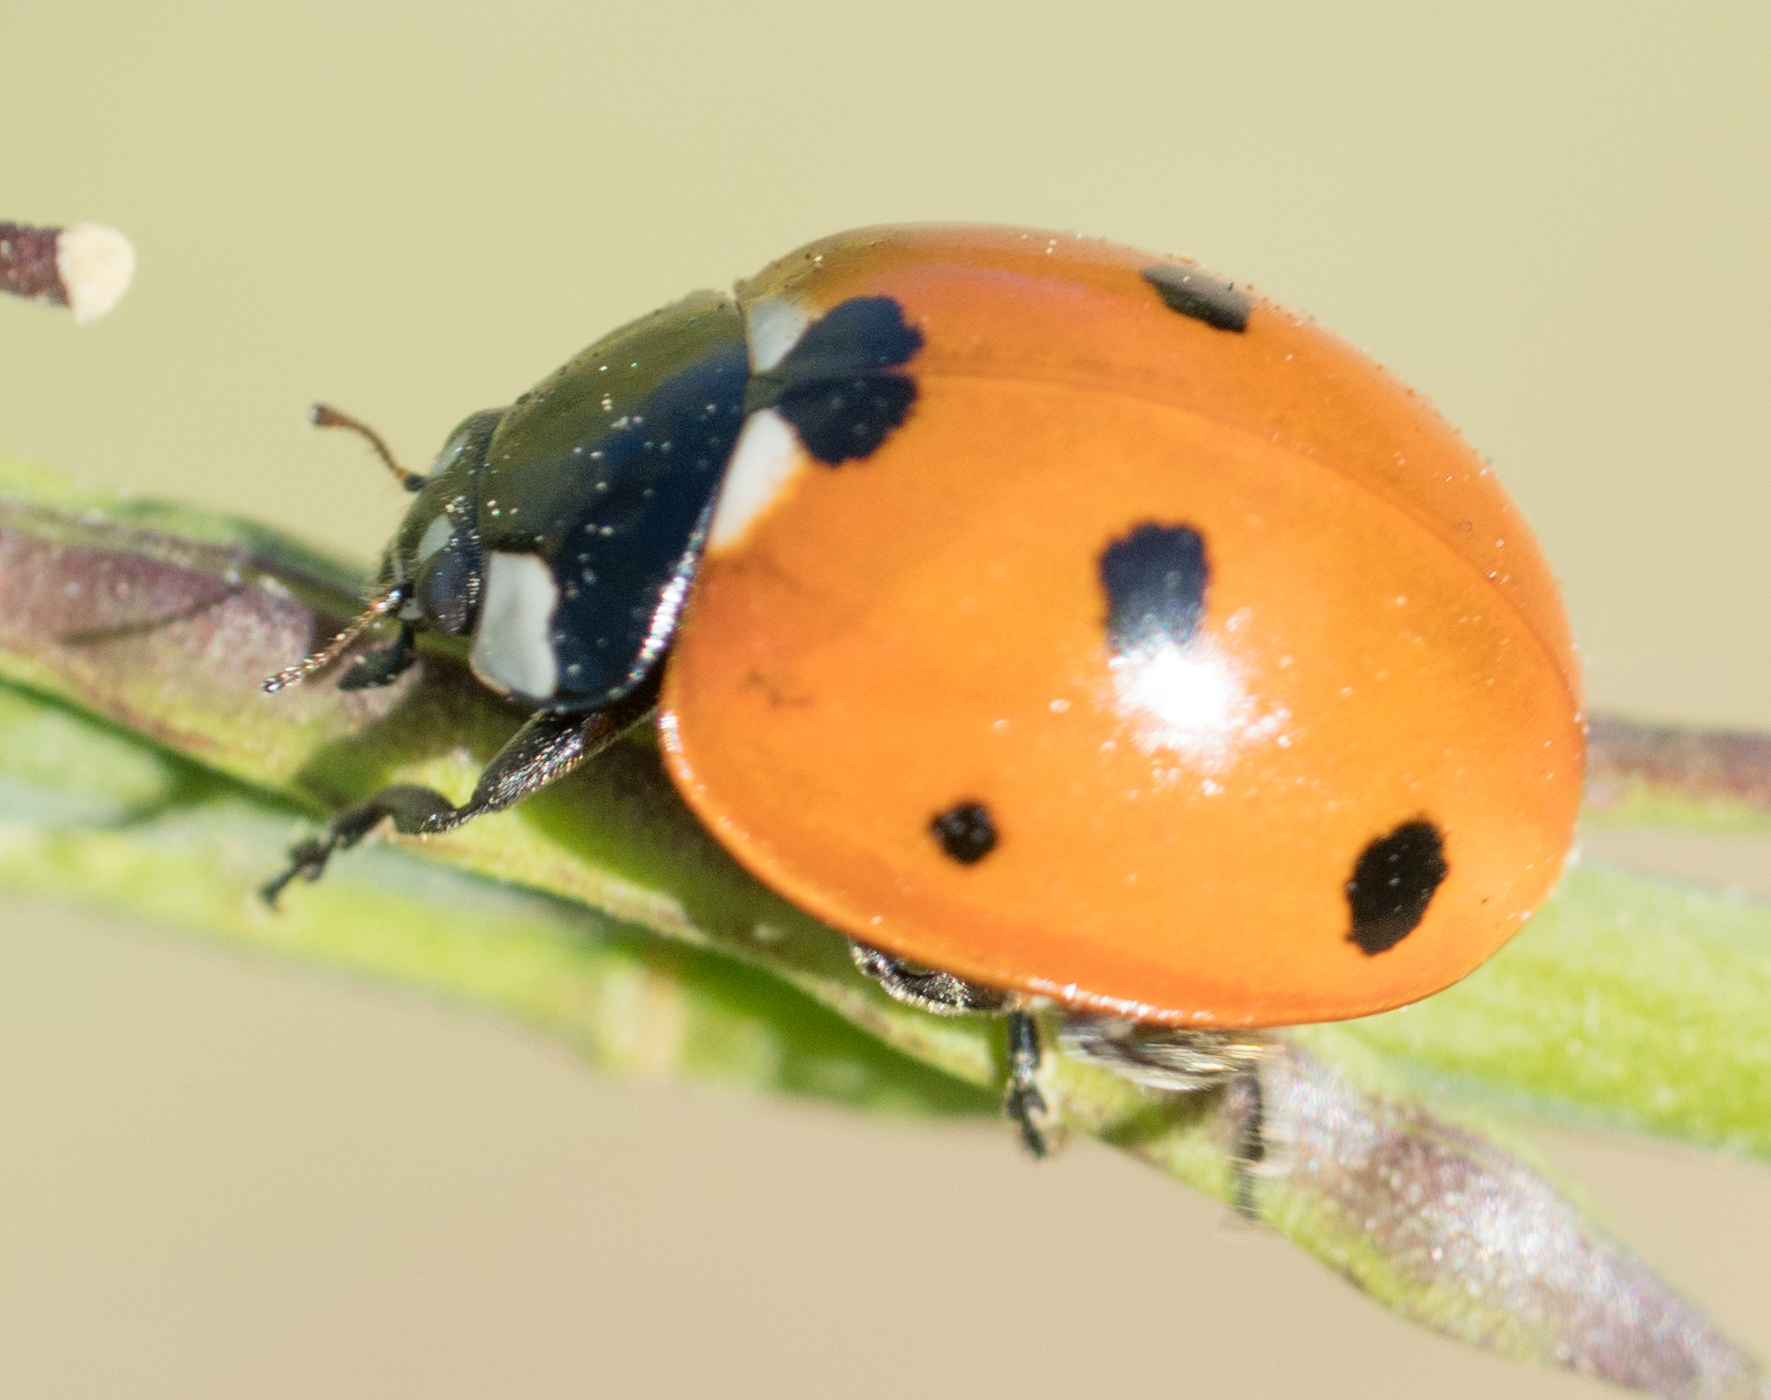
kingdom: Animalia
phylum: Arthropoda
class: Insecta
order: Coleoptera
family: Coccinellidae
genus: Coccinella
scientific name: Coccinella septempunctata
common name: Sevenspotted lady beetle
